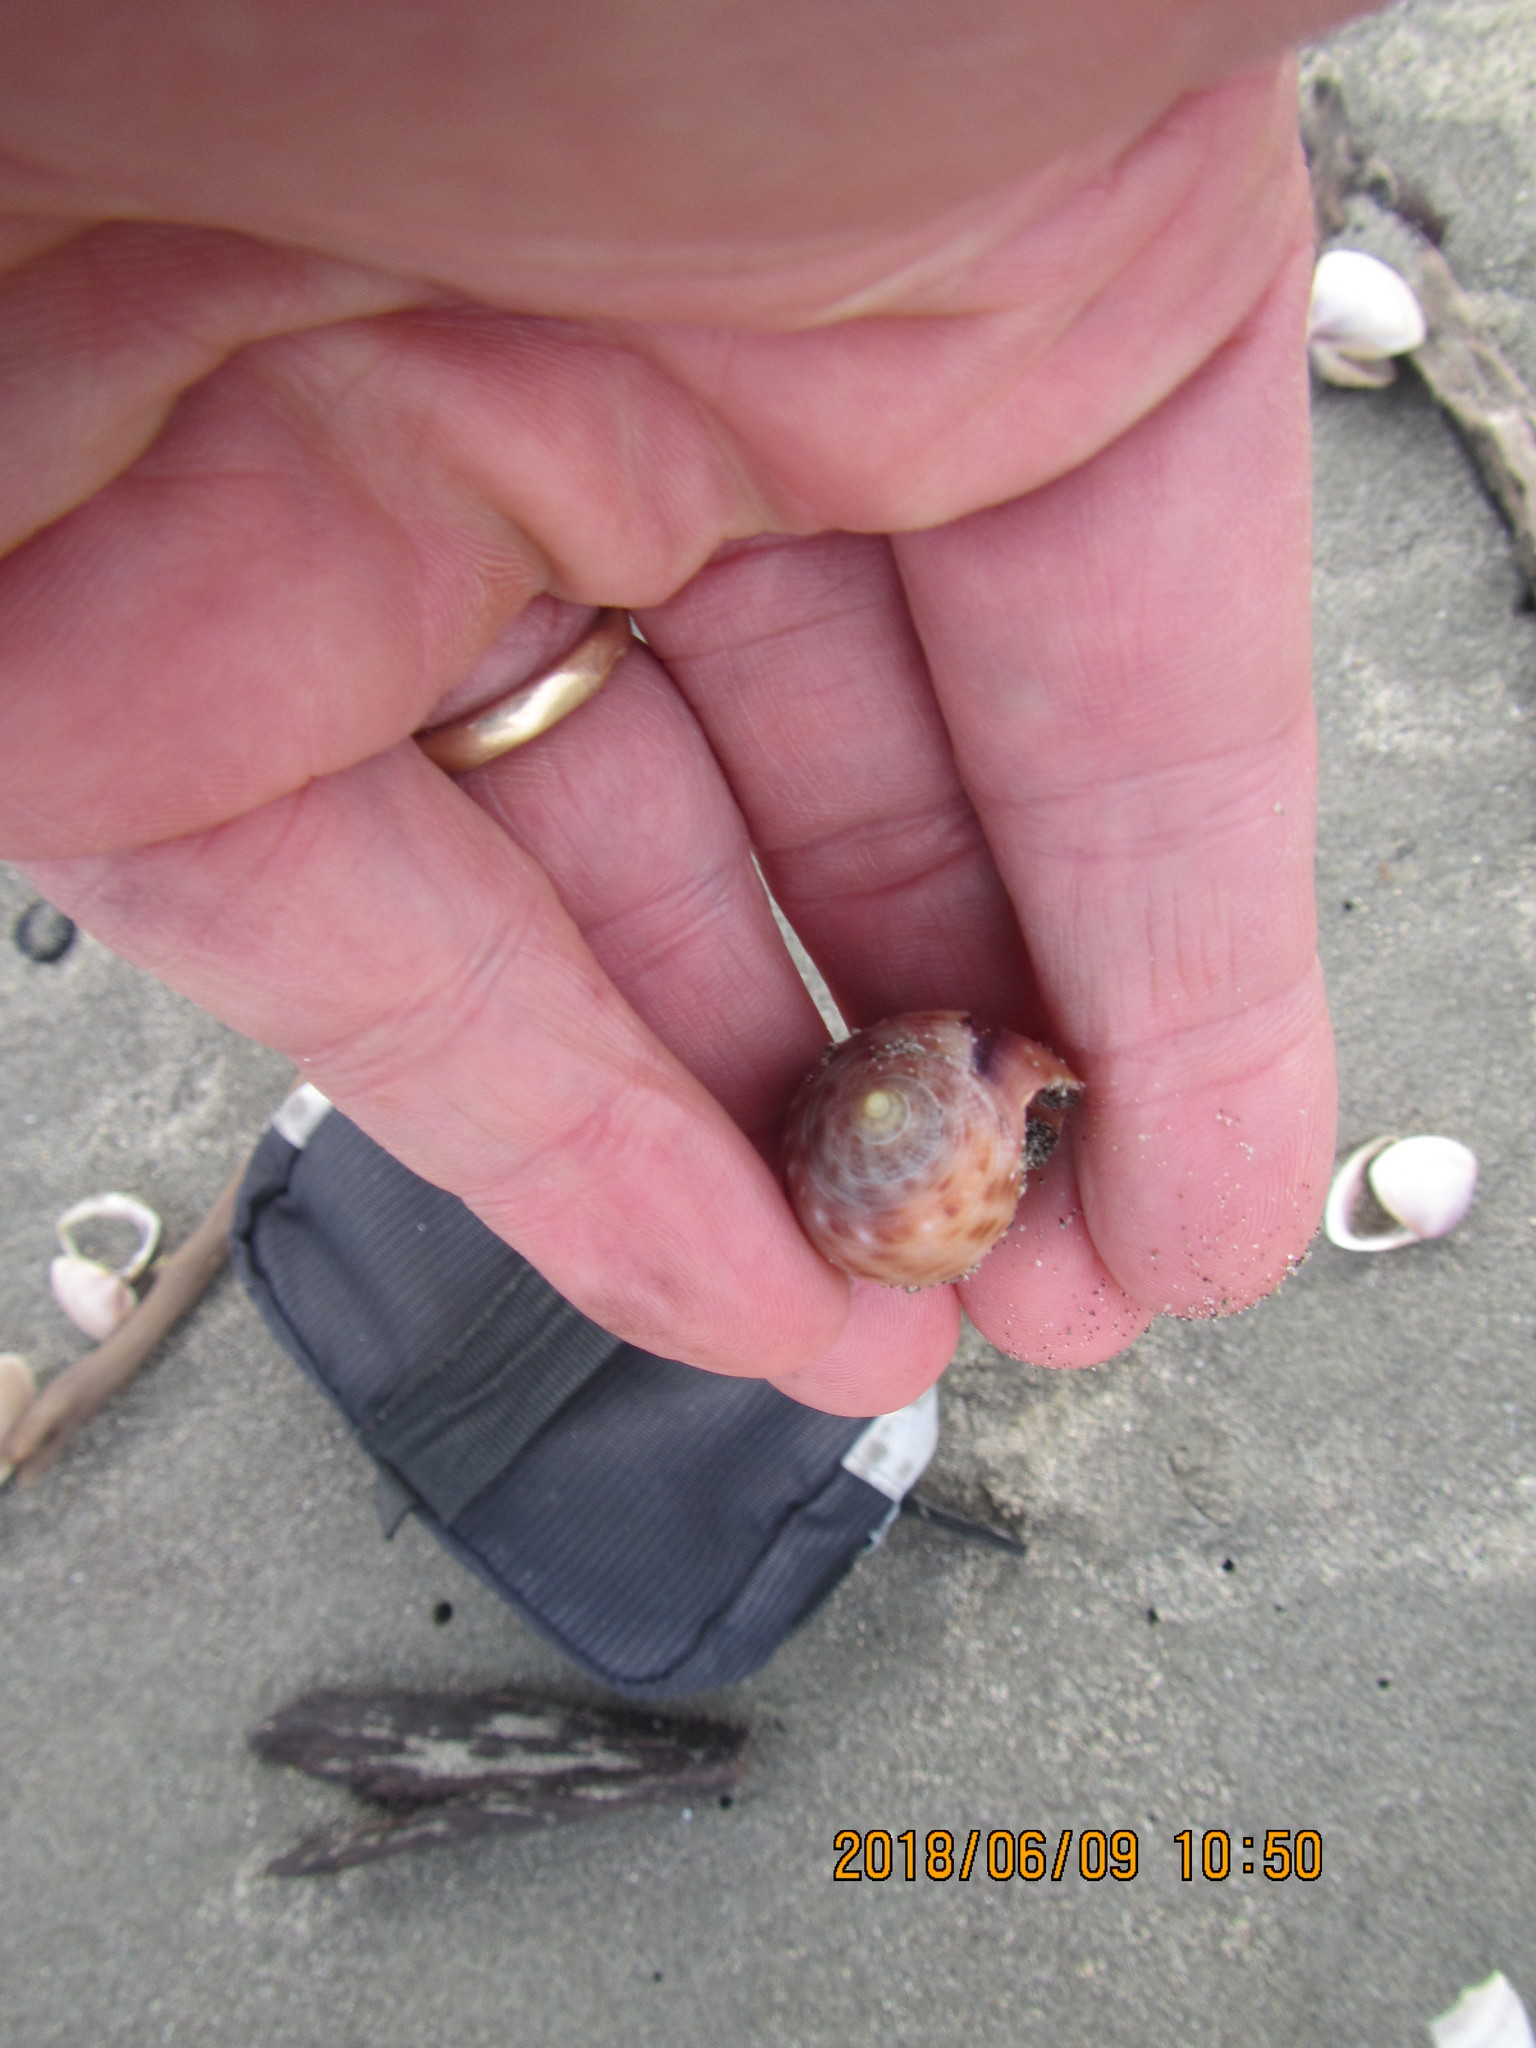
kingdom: Animalia
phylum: Mollusca
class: Gastropoda
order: Littorinimorpha
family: Cassidae
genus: Semicassis
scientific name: Semicassis pyrum
